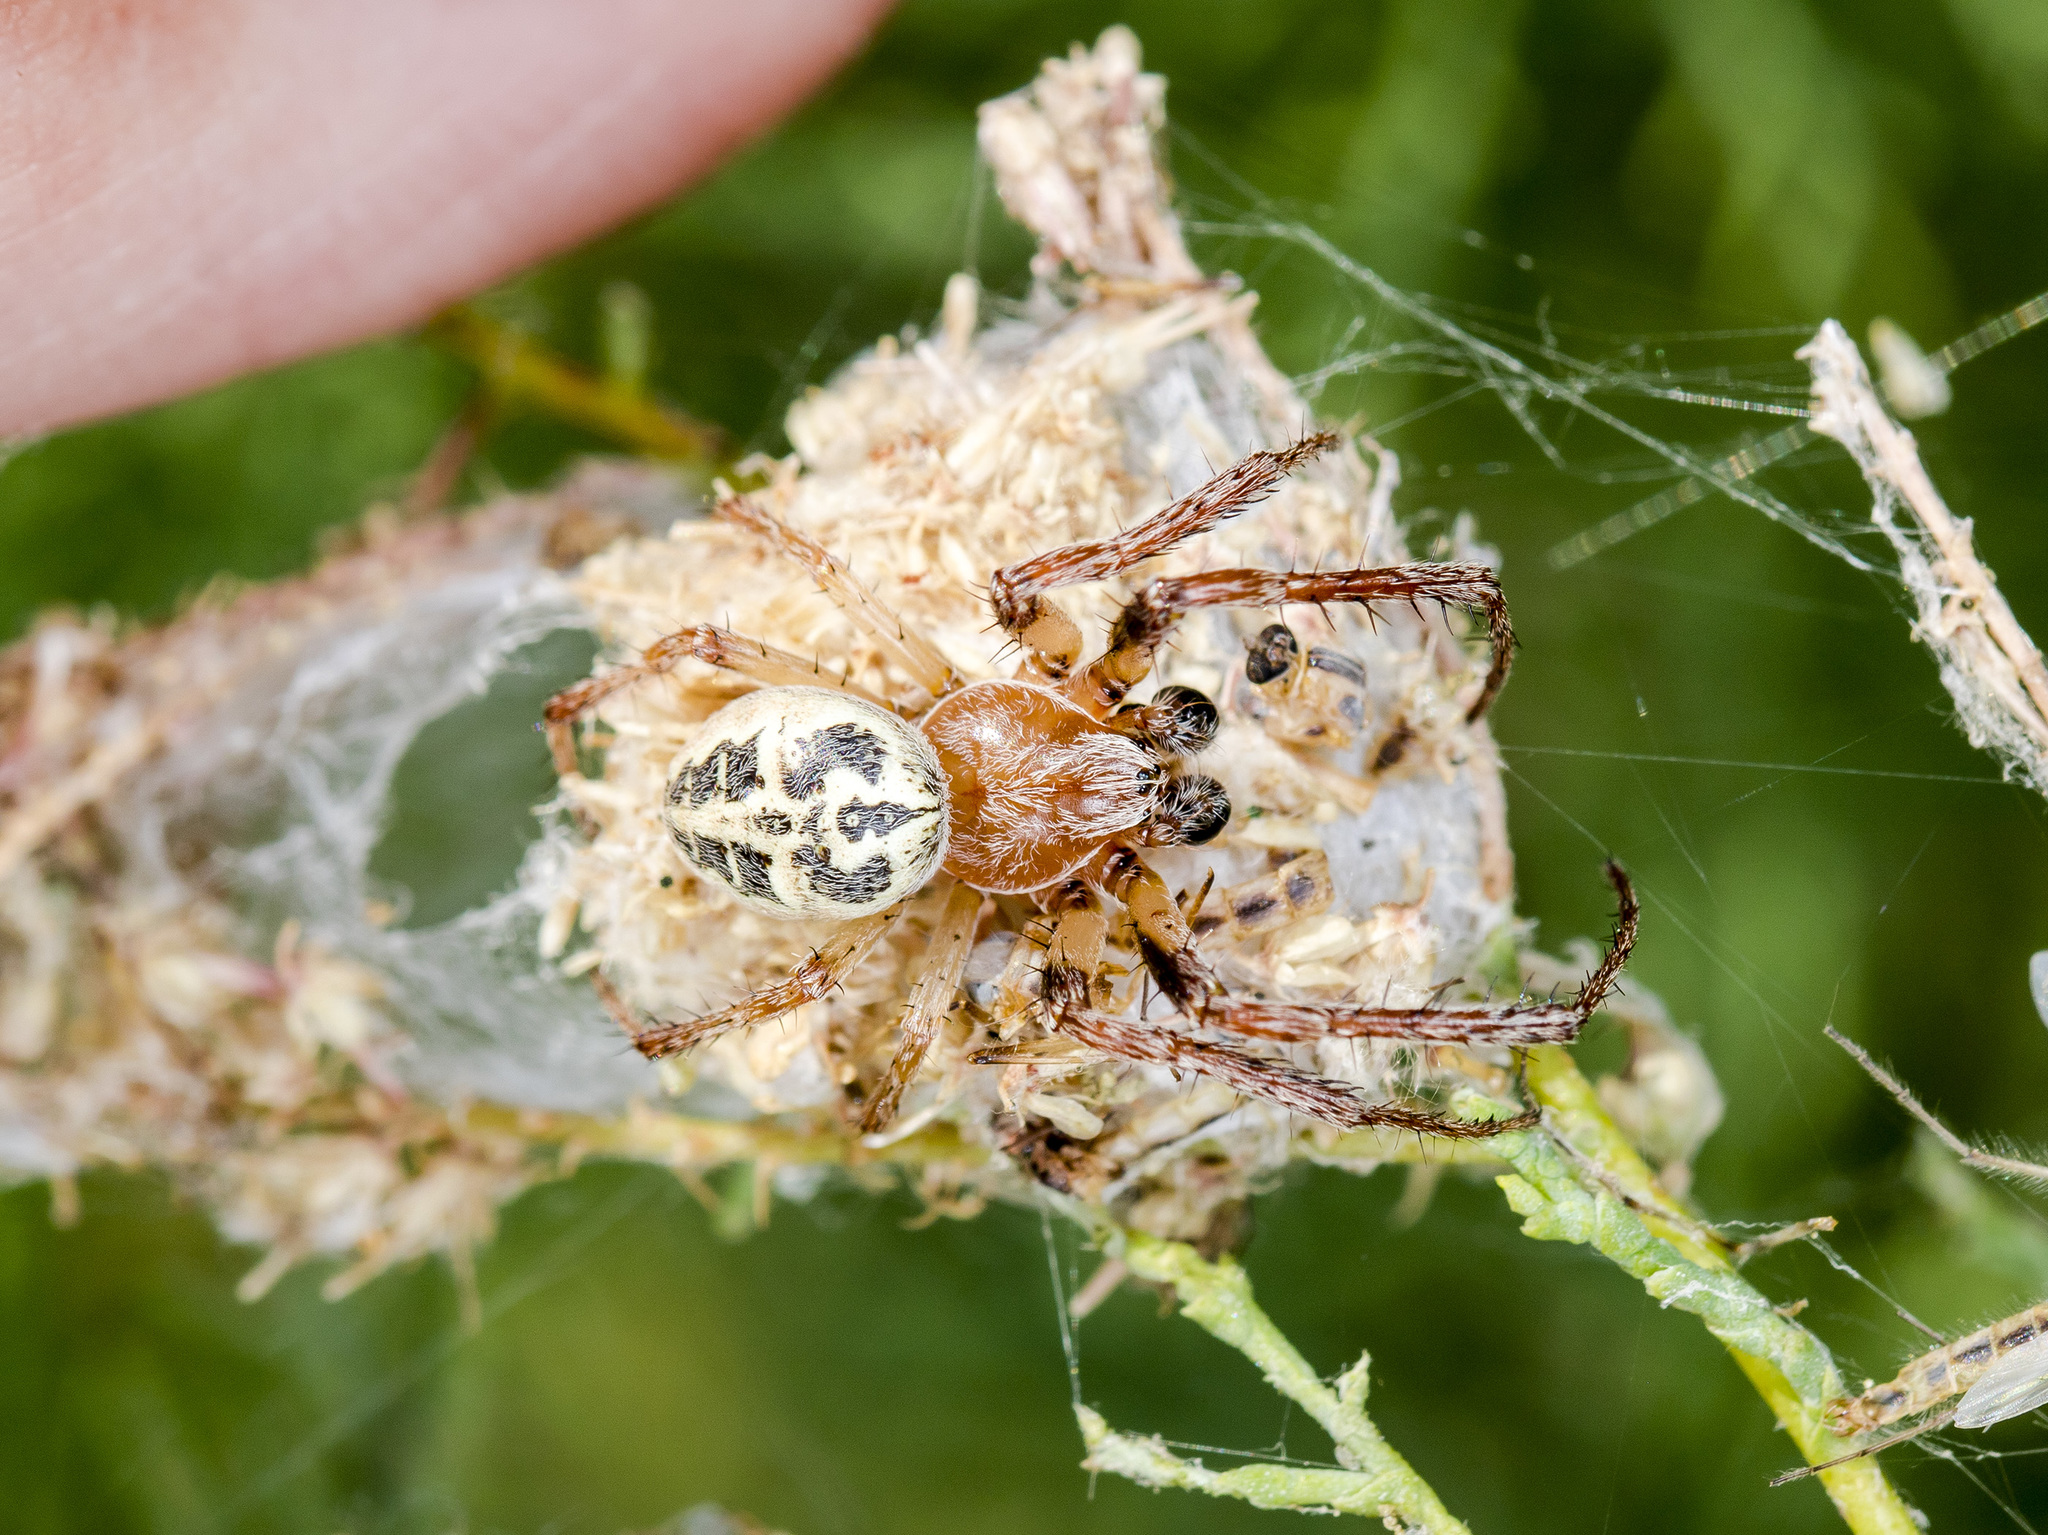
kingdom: Animalia
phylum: Arthropoda
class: Arachnida
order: Araneae
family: Araneidae
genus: Larinioides
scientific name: Larinioides suspicax
